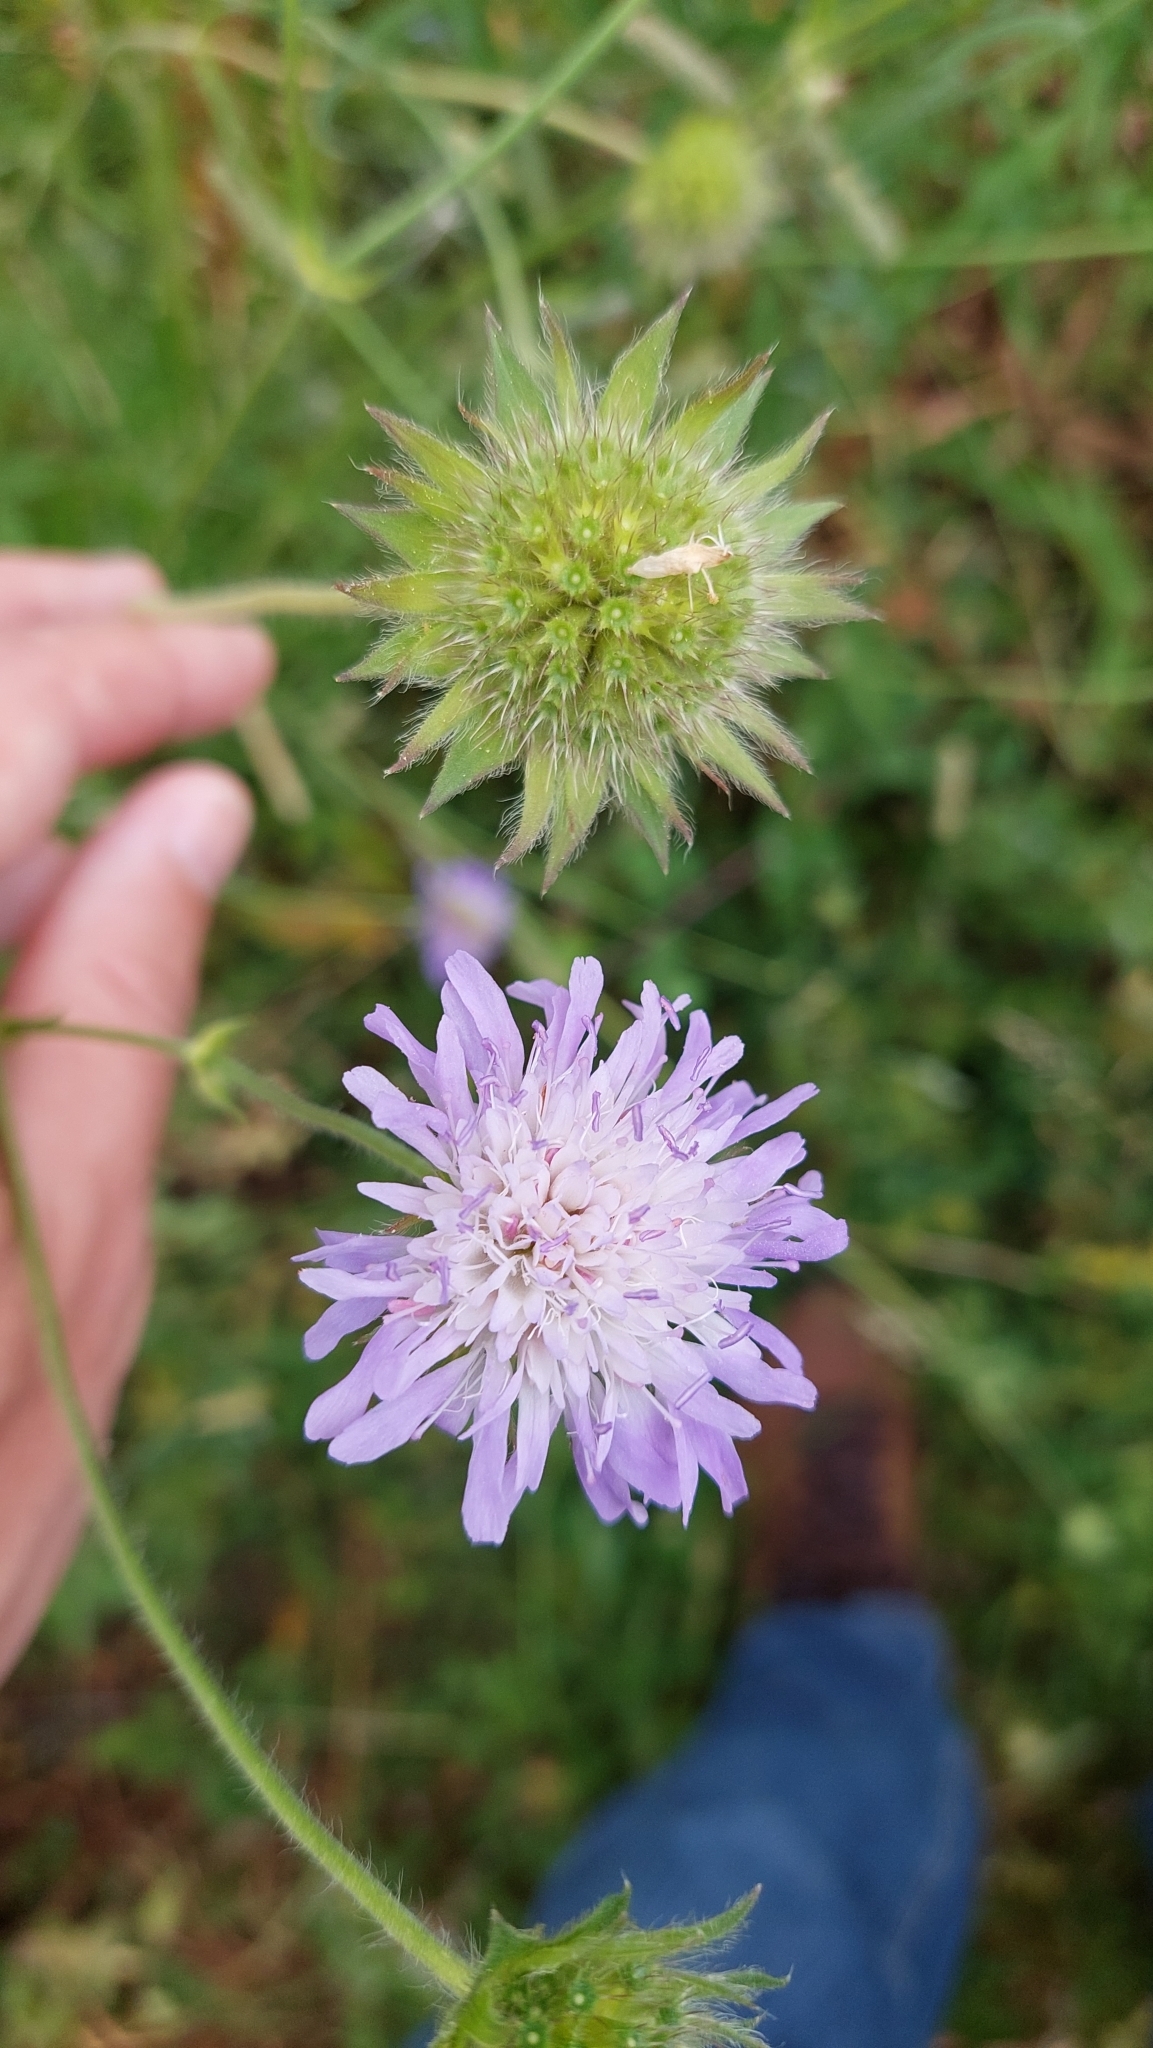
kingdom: Plantae
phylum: Tracheophyta
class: Magnoliopsida
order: Dipsacales
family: Caprifoliaceae
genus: Knautia
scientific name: Knautia arvensis
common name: Field scabiosa
